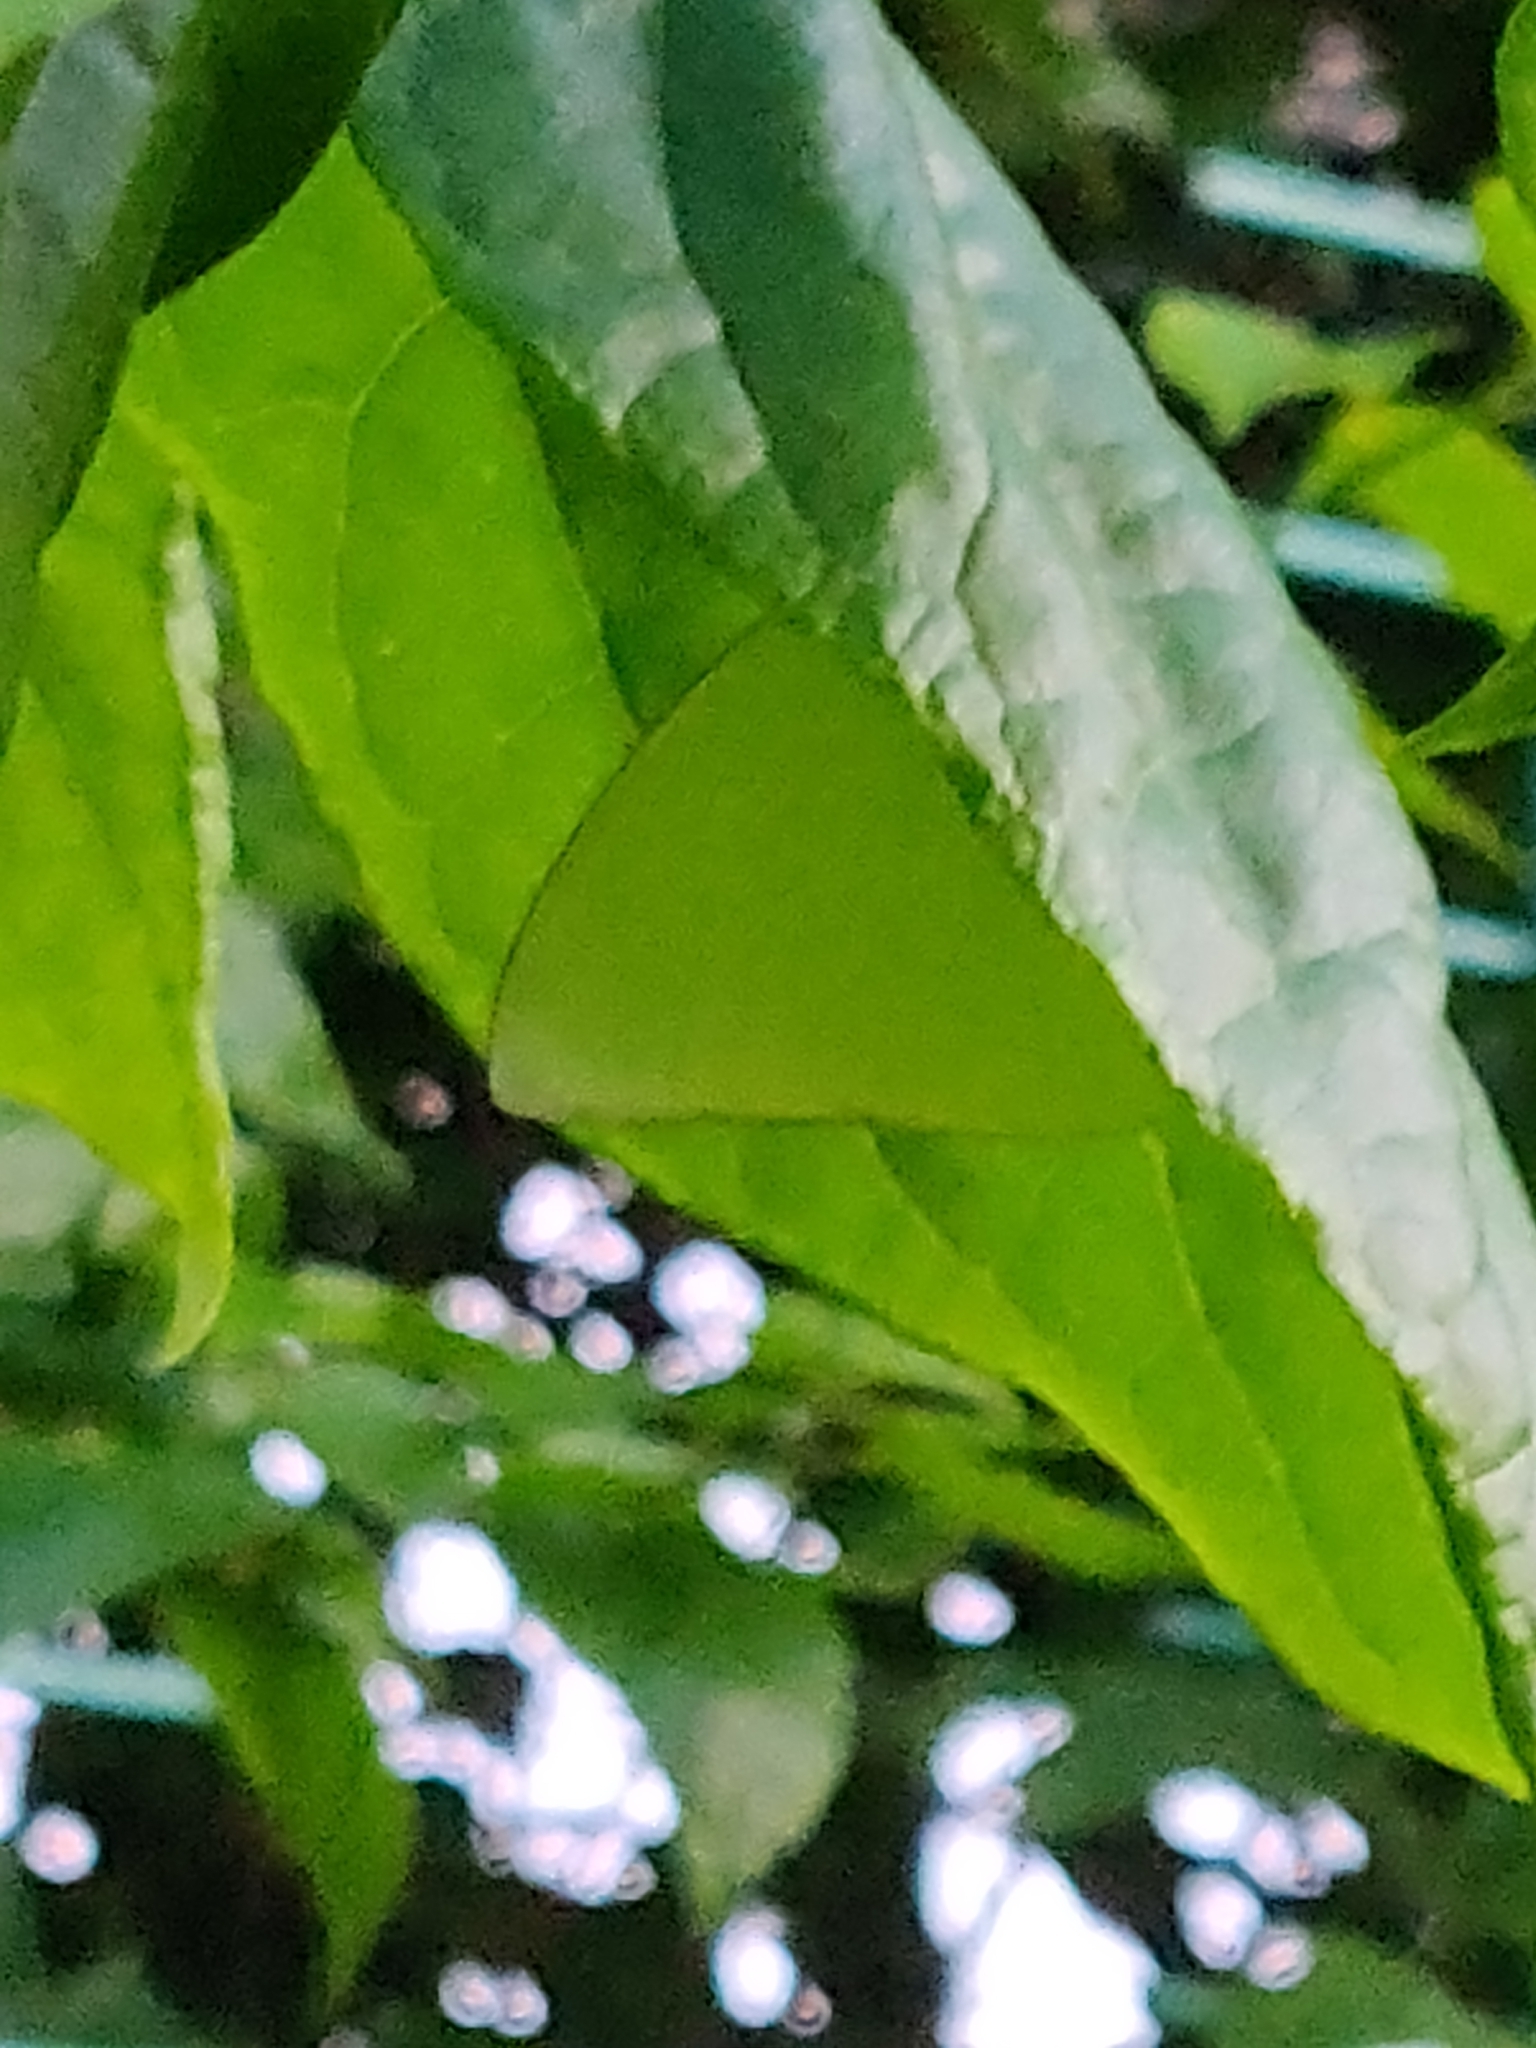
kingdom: Animalia
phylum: Arthropoda
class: Insecta
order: Lepidoptera
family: Pieridae
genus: Catopsilia
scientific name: Catopsilia pomona
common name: Common emigrant
